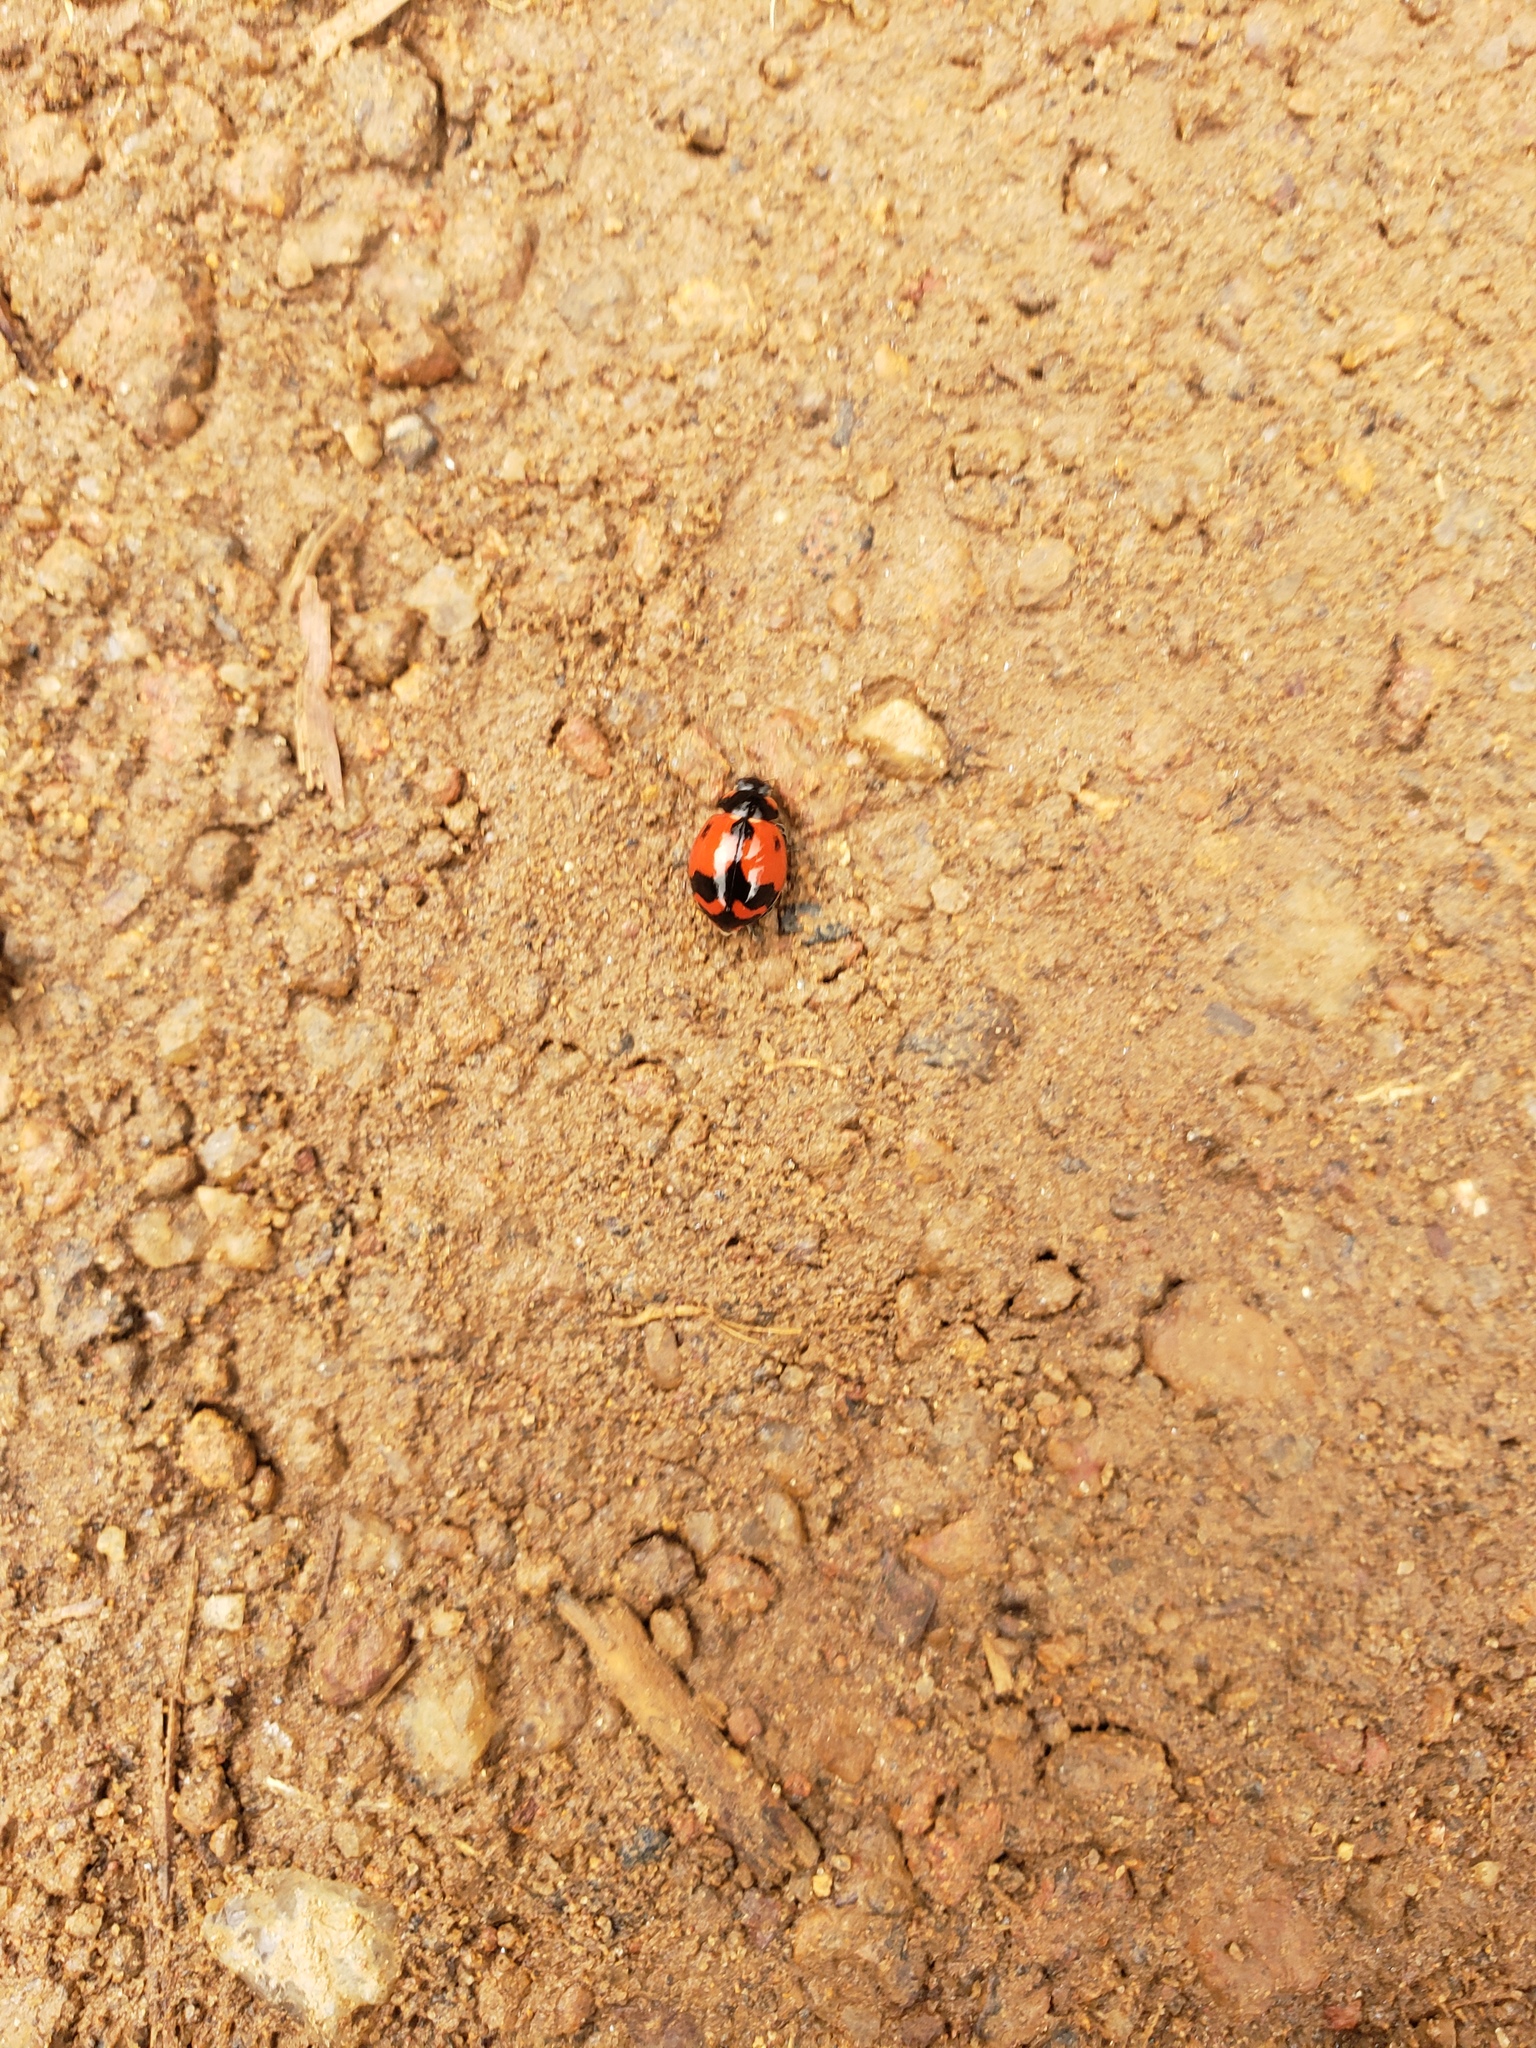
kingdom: Animalia
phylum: Arthropoda
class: Insecta
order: Coleoptera
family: Coccinellidae
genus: Coccinella
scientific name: Coccinella transversalis
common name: Transverse lady beetle
